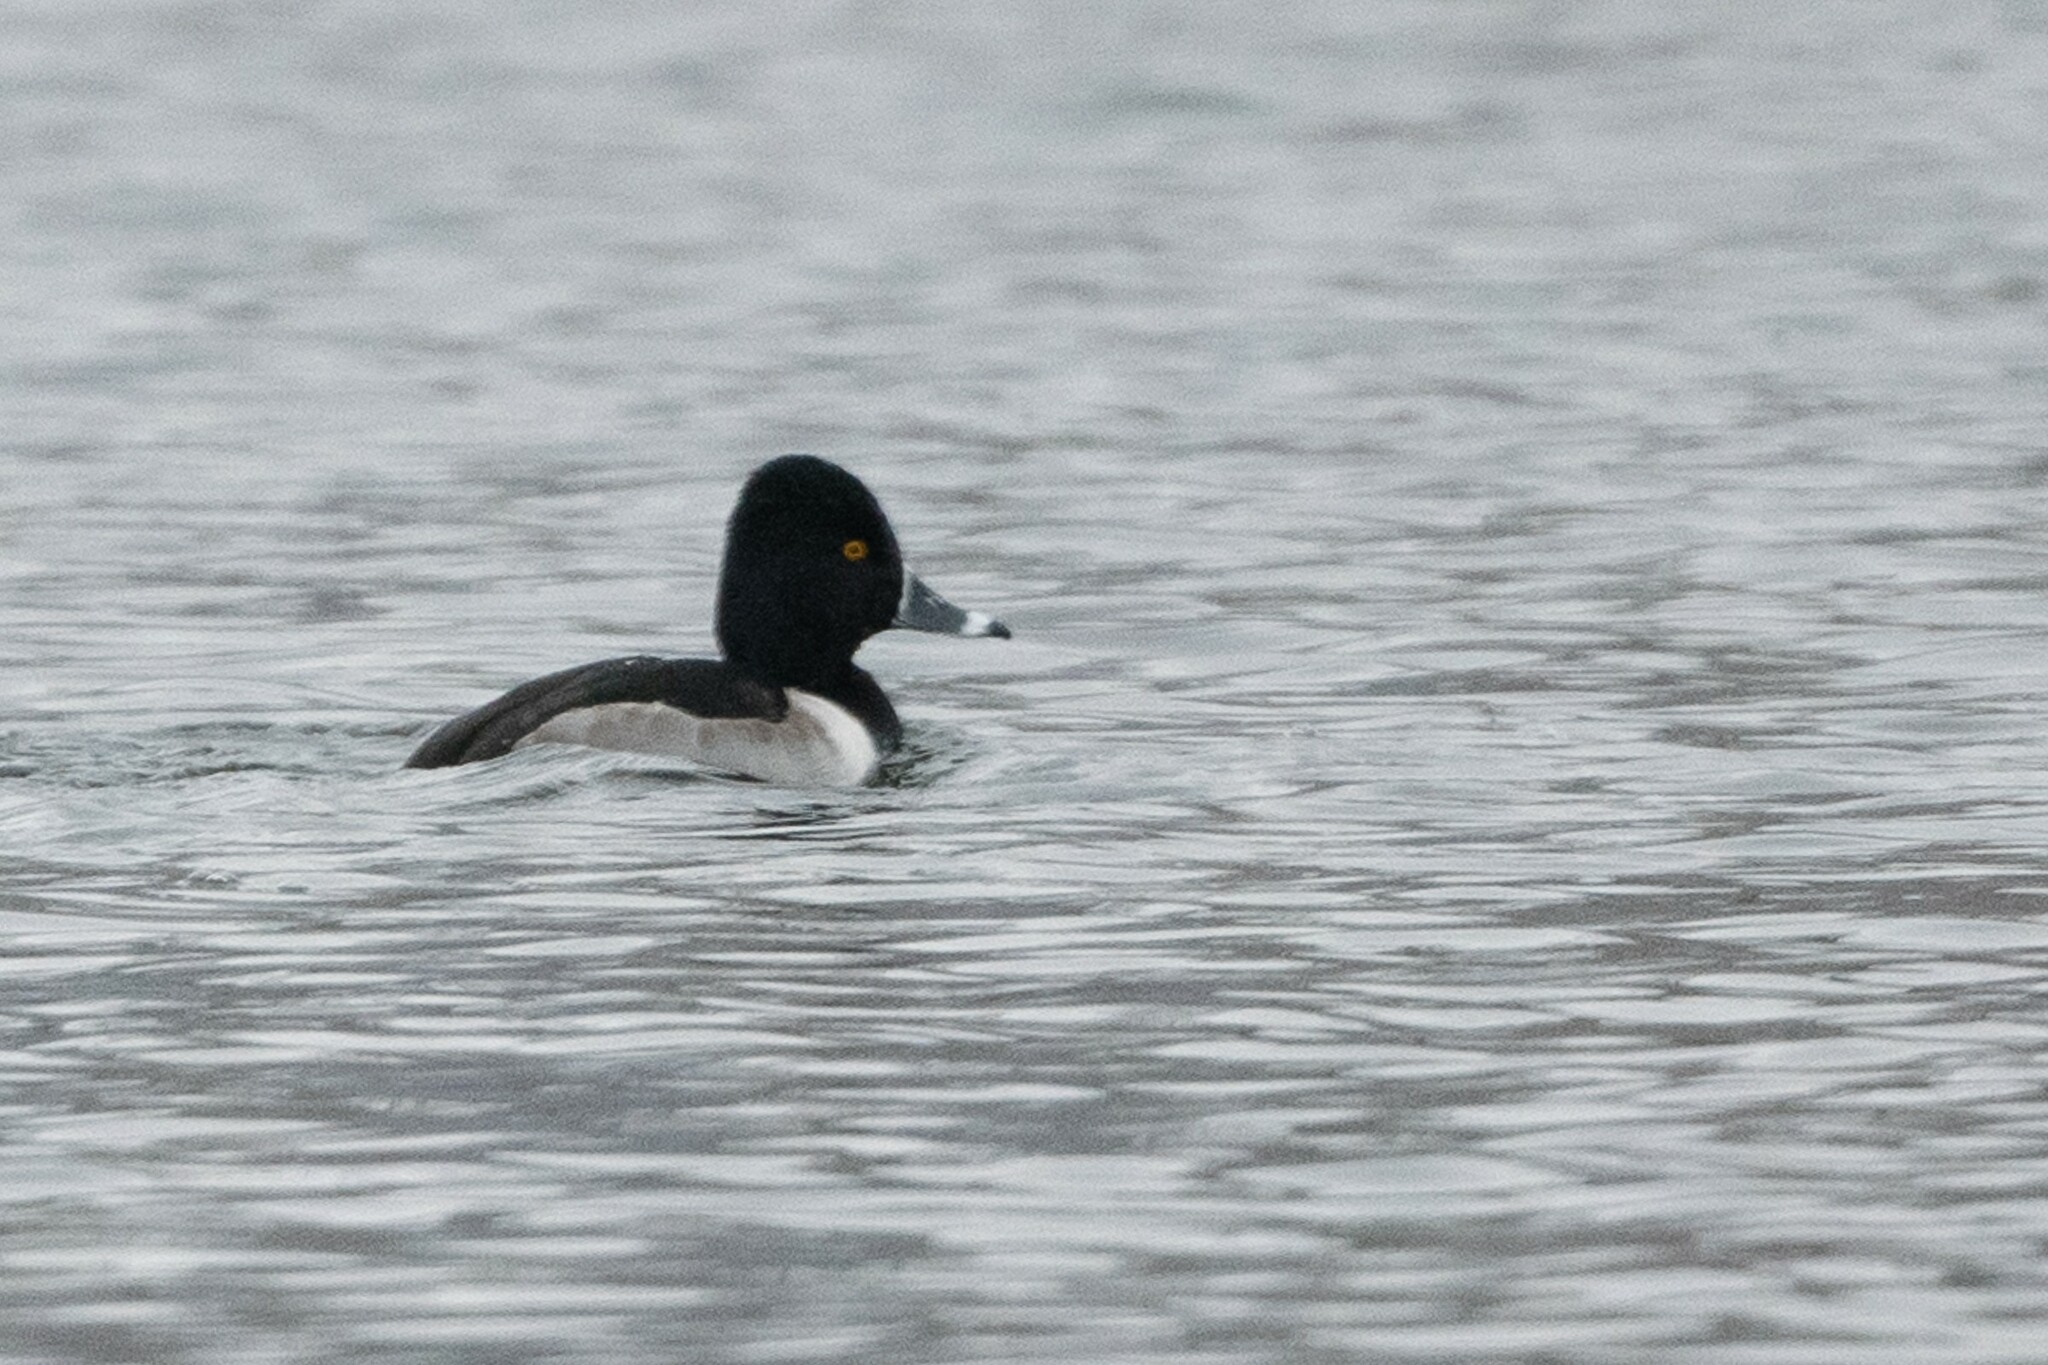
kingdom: Animalia
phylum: Chordata
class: Aves
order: Anseriformes
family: Anatidae
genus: Aythya
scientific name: Aythya collaris
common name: Ring-necked duck
